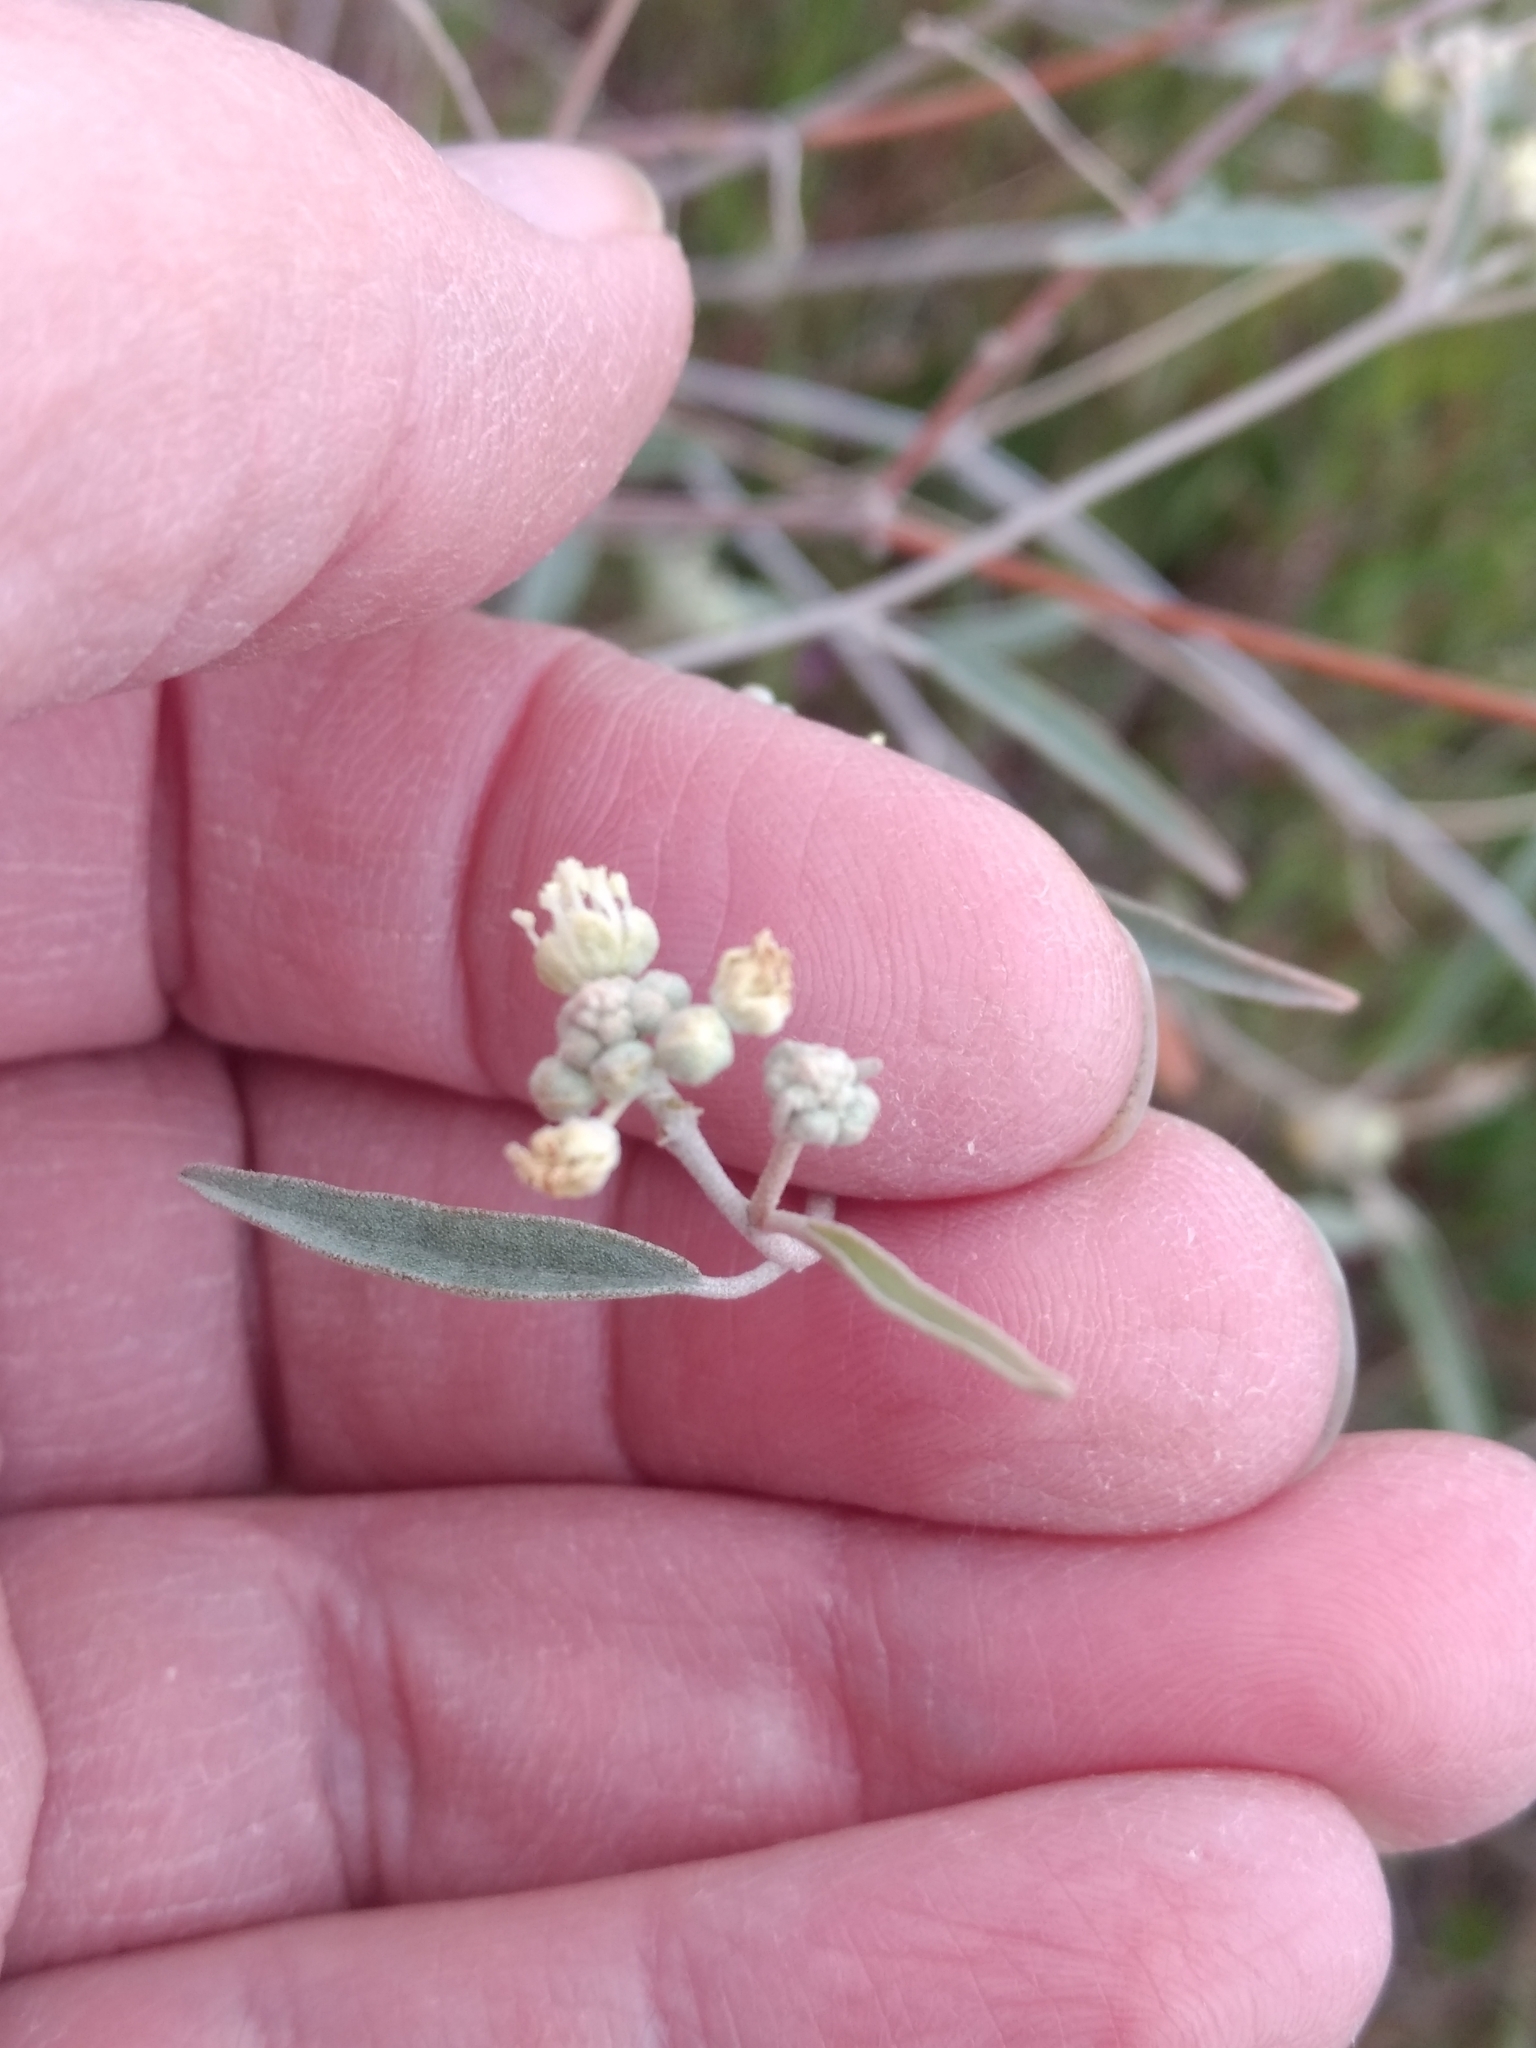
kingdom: Plantae
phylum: Tracheophyta
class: Magnoliopsida
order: Malpighiales
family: Euphorbiaceae
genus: Croton
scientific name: Croton californicus
